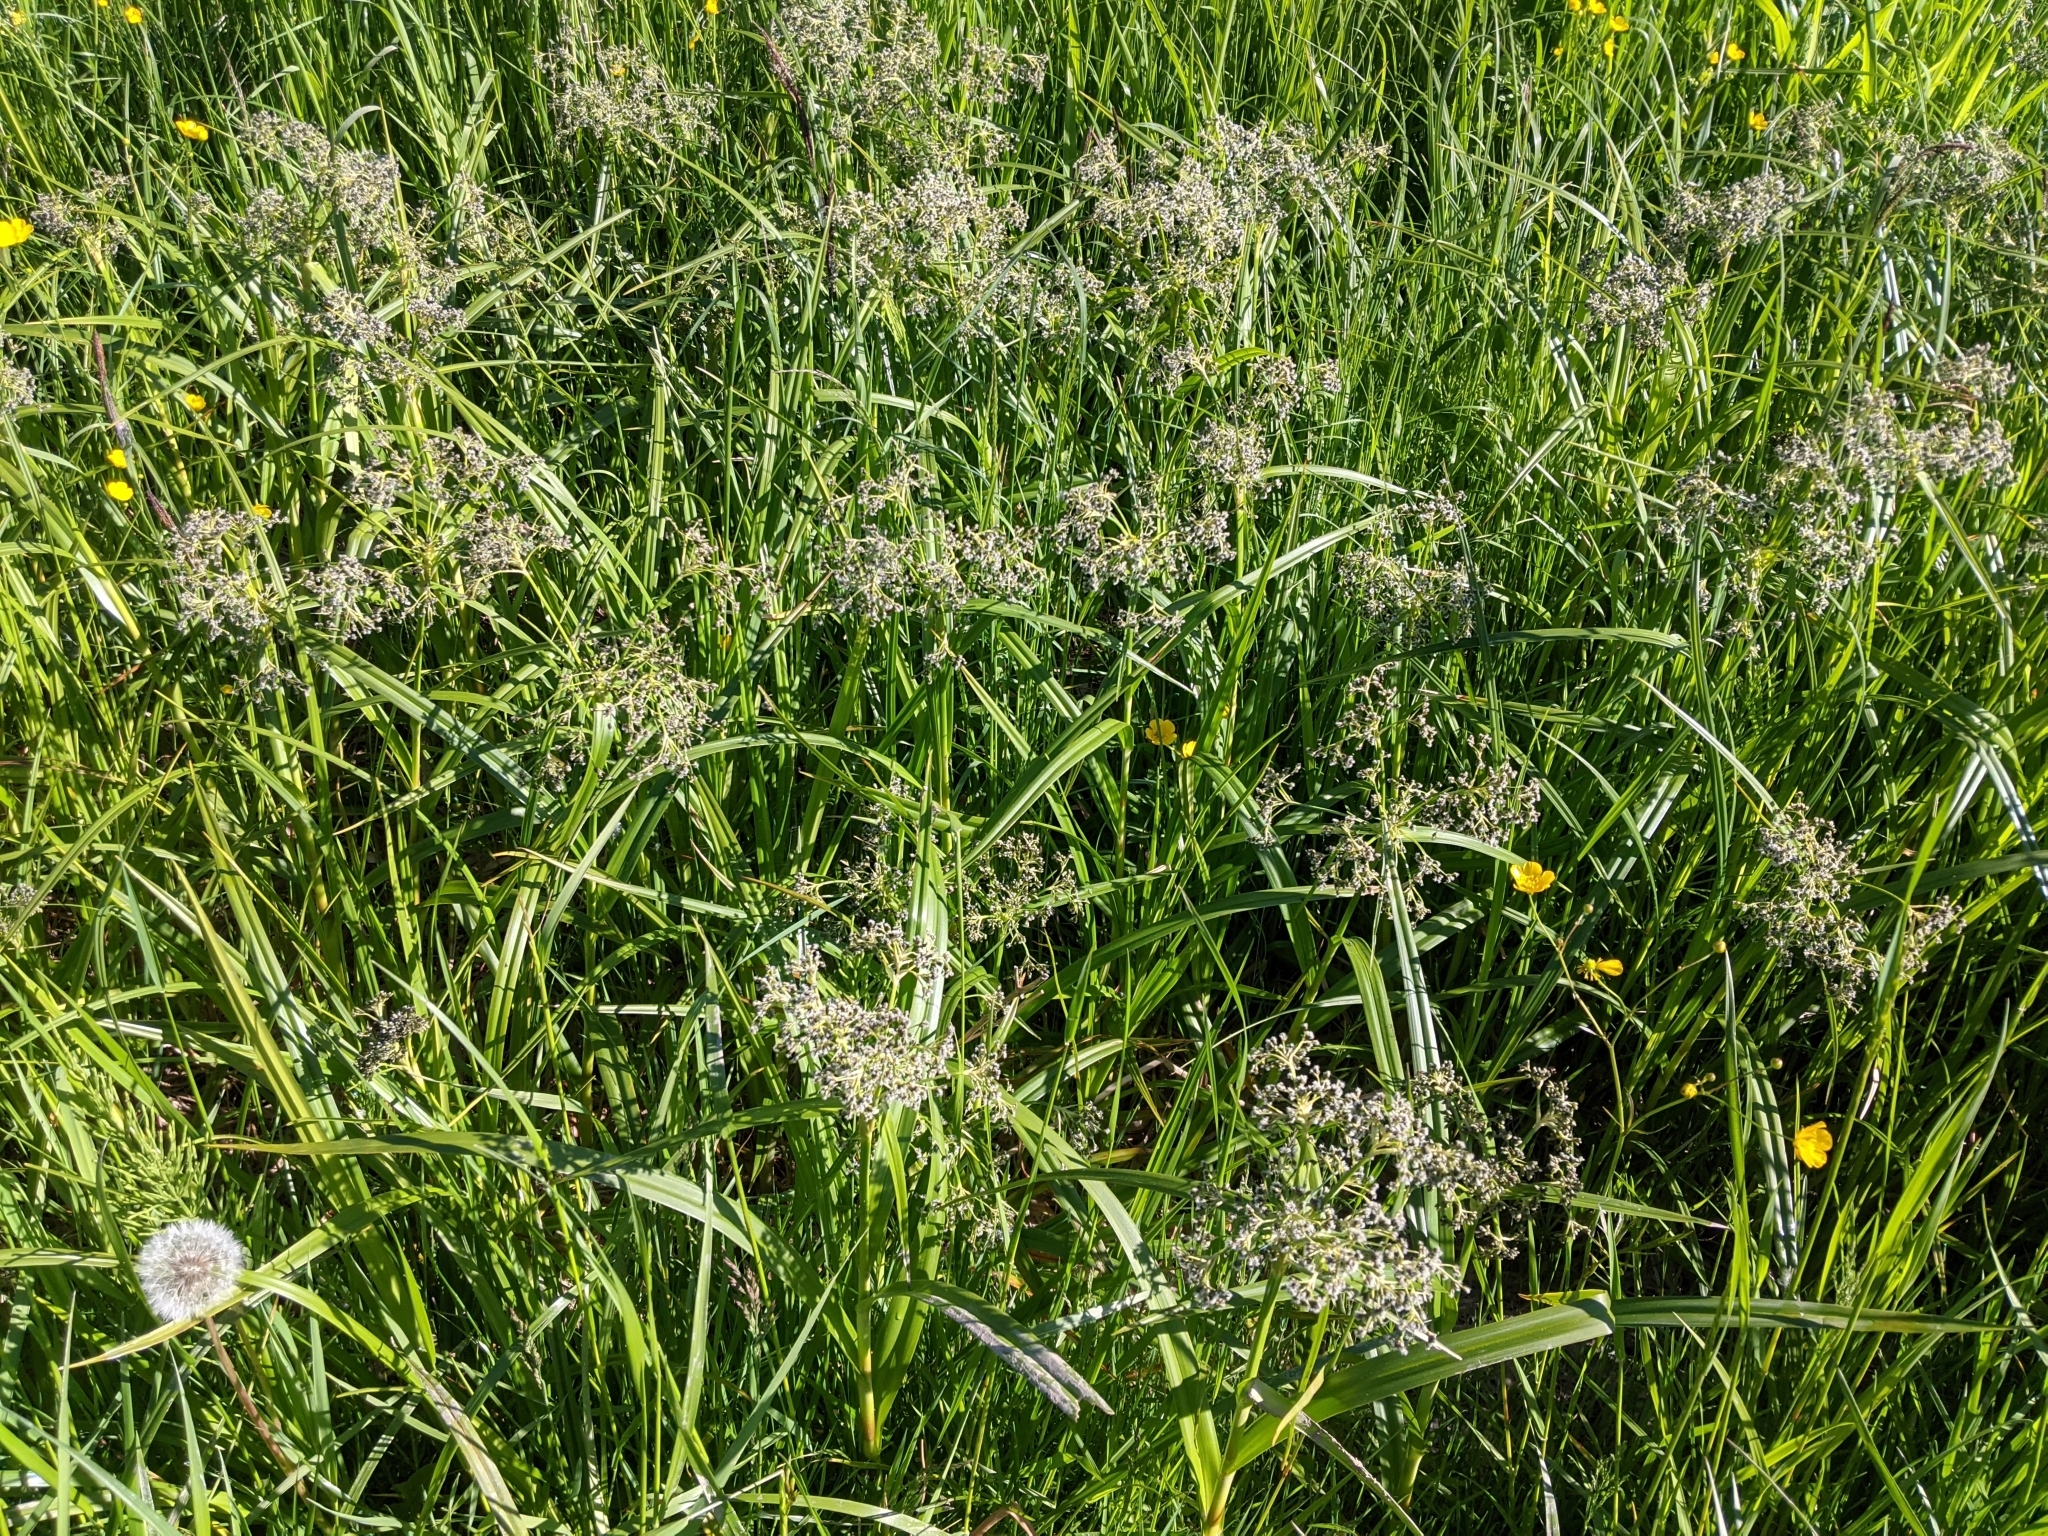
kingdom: Plantae
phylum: Tracheophyta
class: Liliopsida
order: Poales
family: Cyperaceae
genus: Scirpus
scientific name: Scirpus sylvaticus
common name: Wood club-rush
